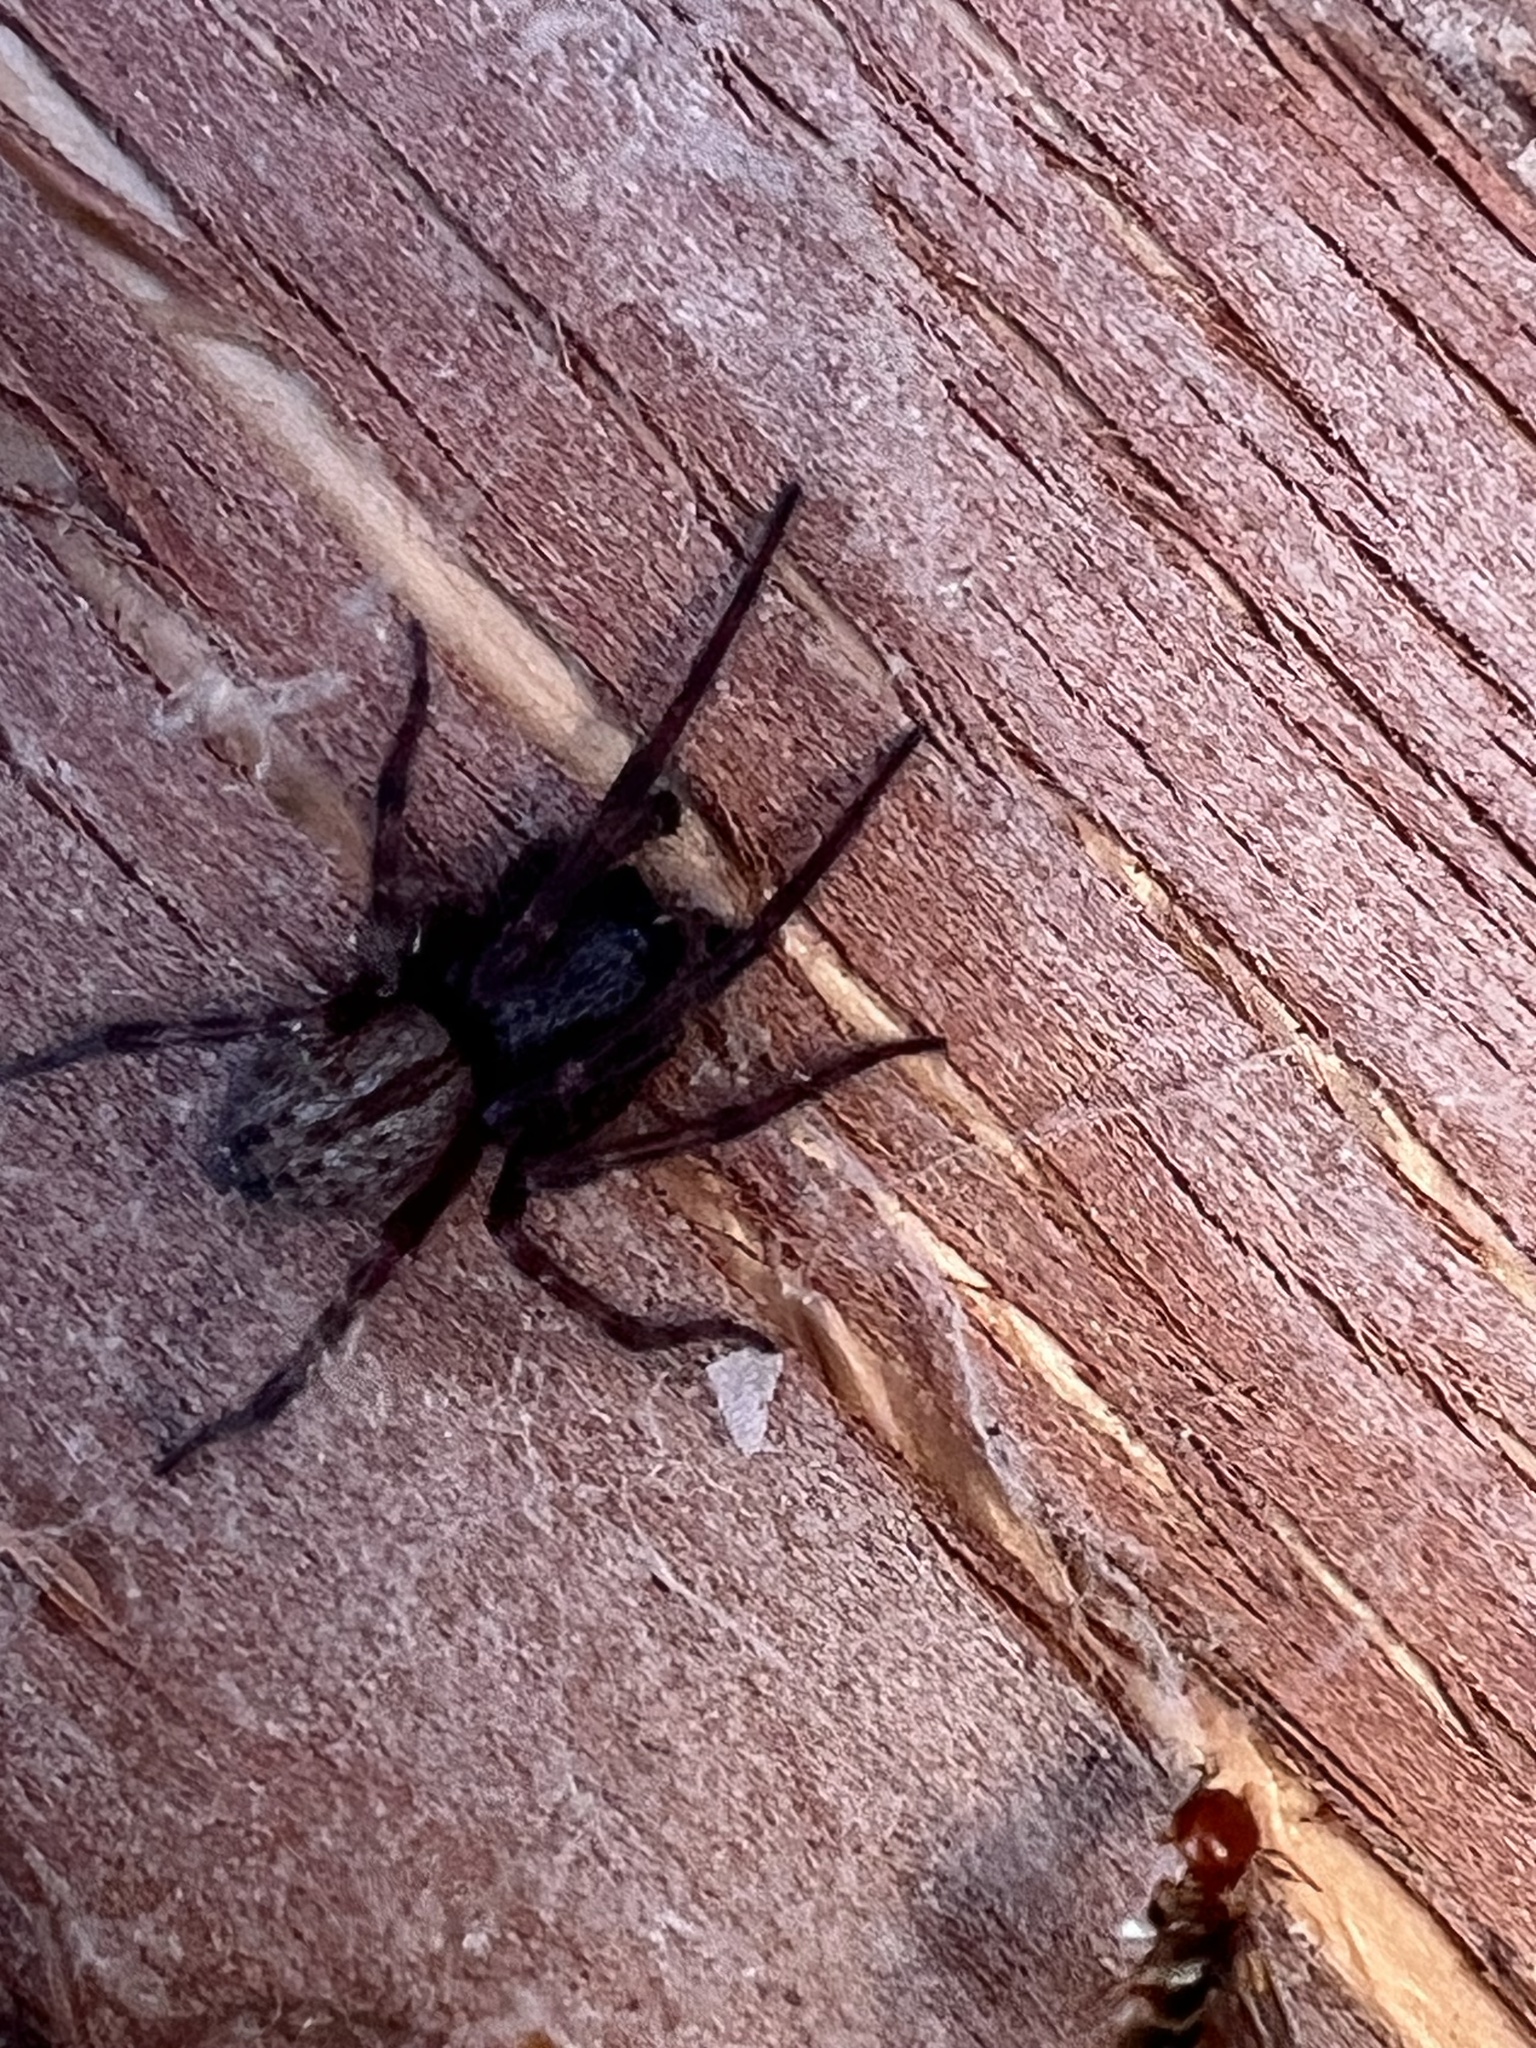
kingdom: Animalia
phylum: Arthropoda
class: Arachnida
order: Araneae
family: Desidae
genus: Badumna
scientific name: Badumna longinqua
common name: Gray house spider
